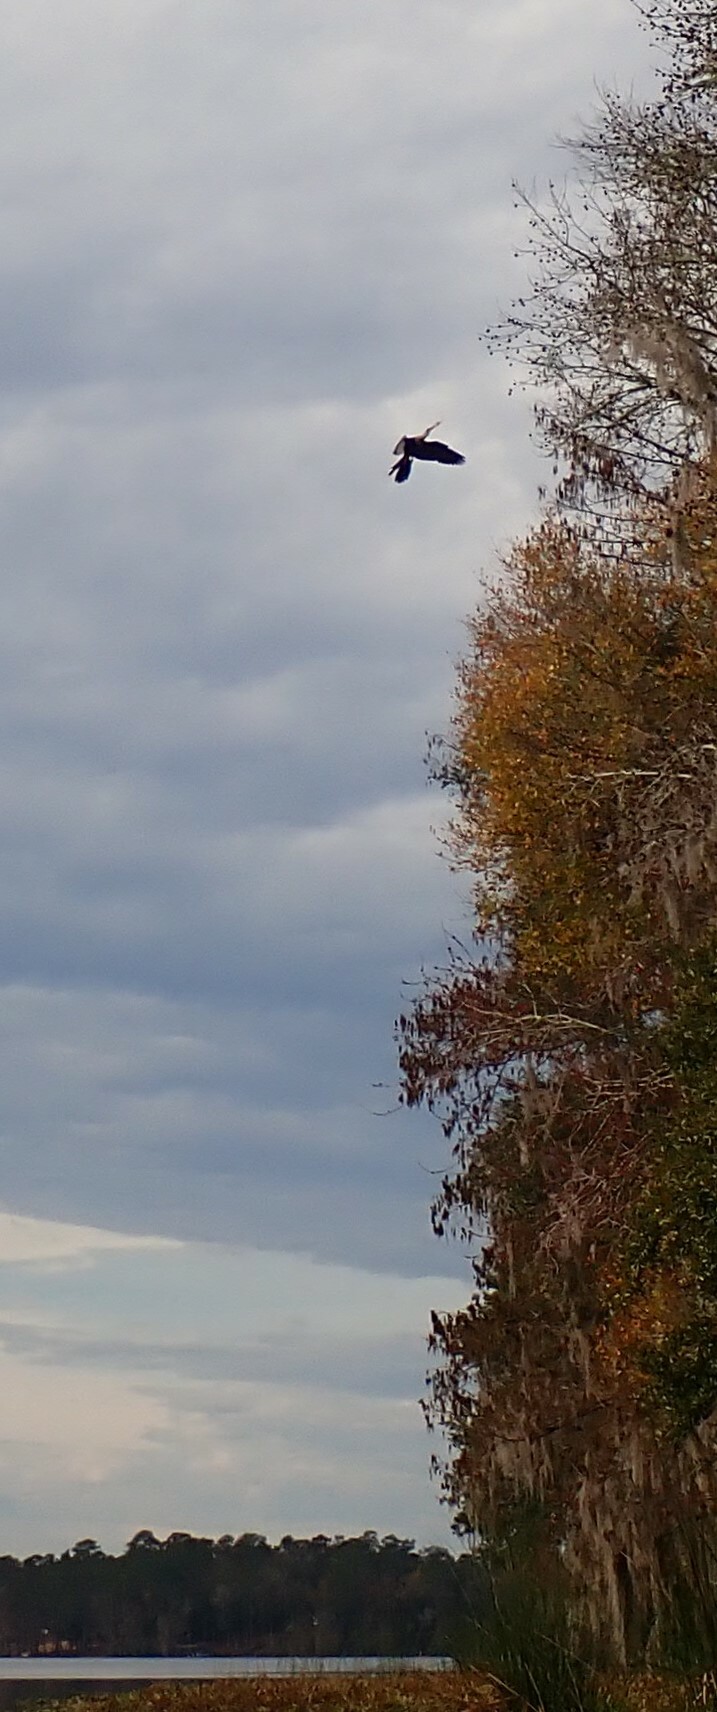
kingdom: Animalia
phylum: Chordata
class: Aves
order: Suliformes
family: Anhingidae
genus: Anhinga
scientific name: Anhinga anhinga
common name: Anhinga
